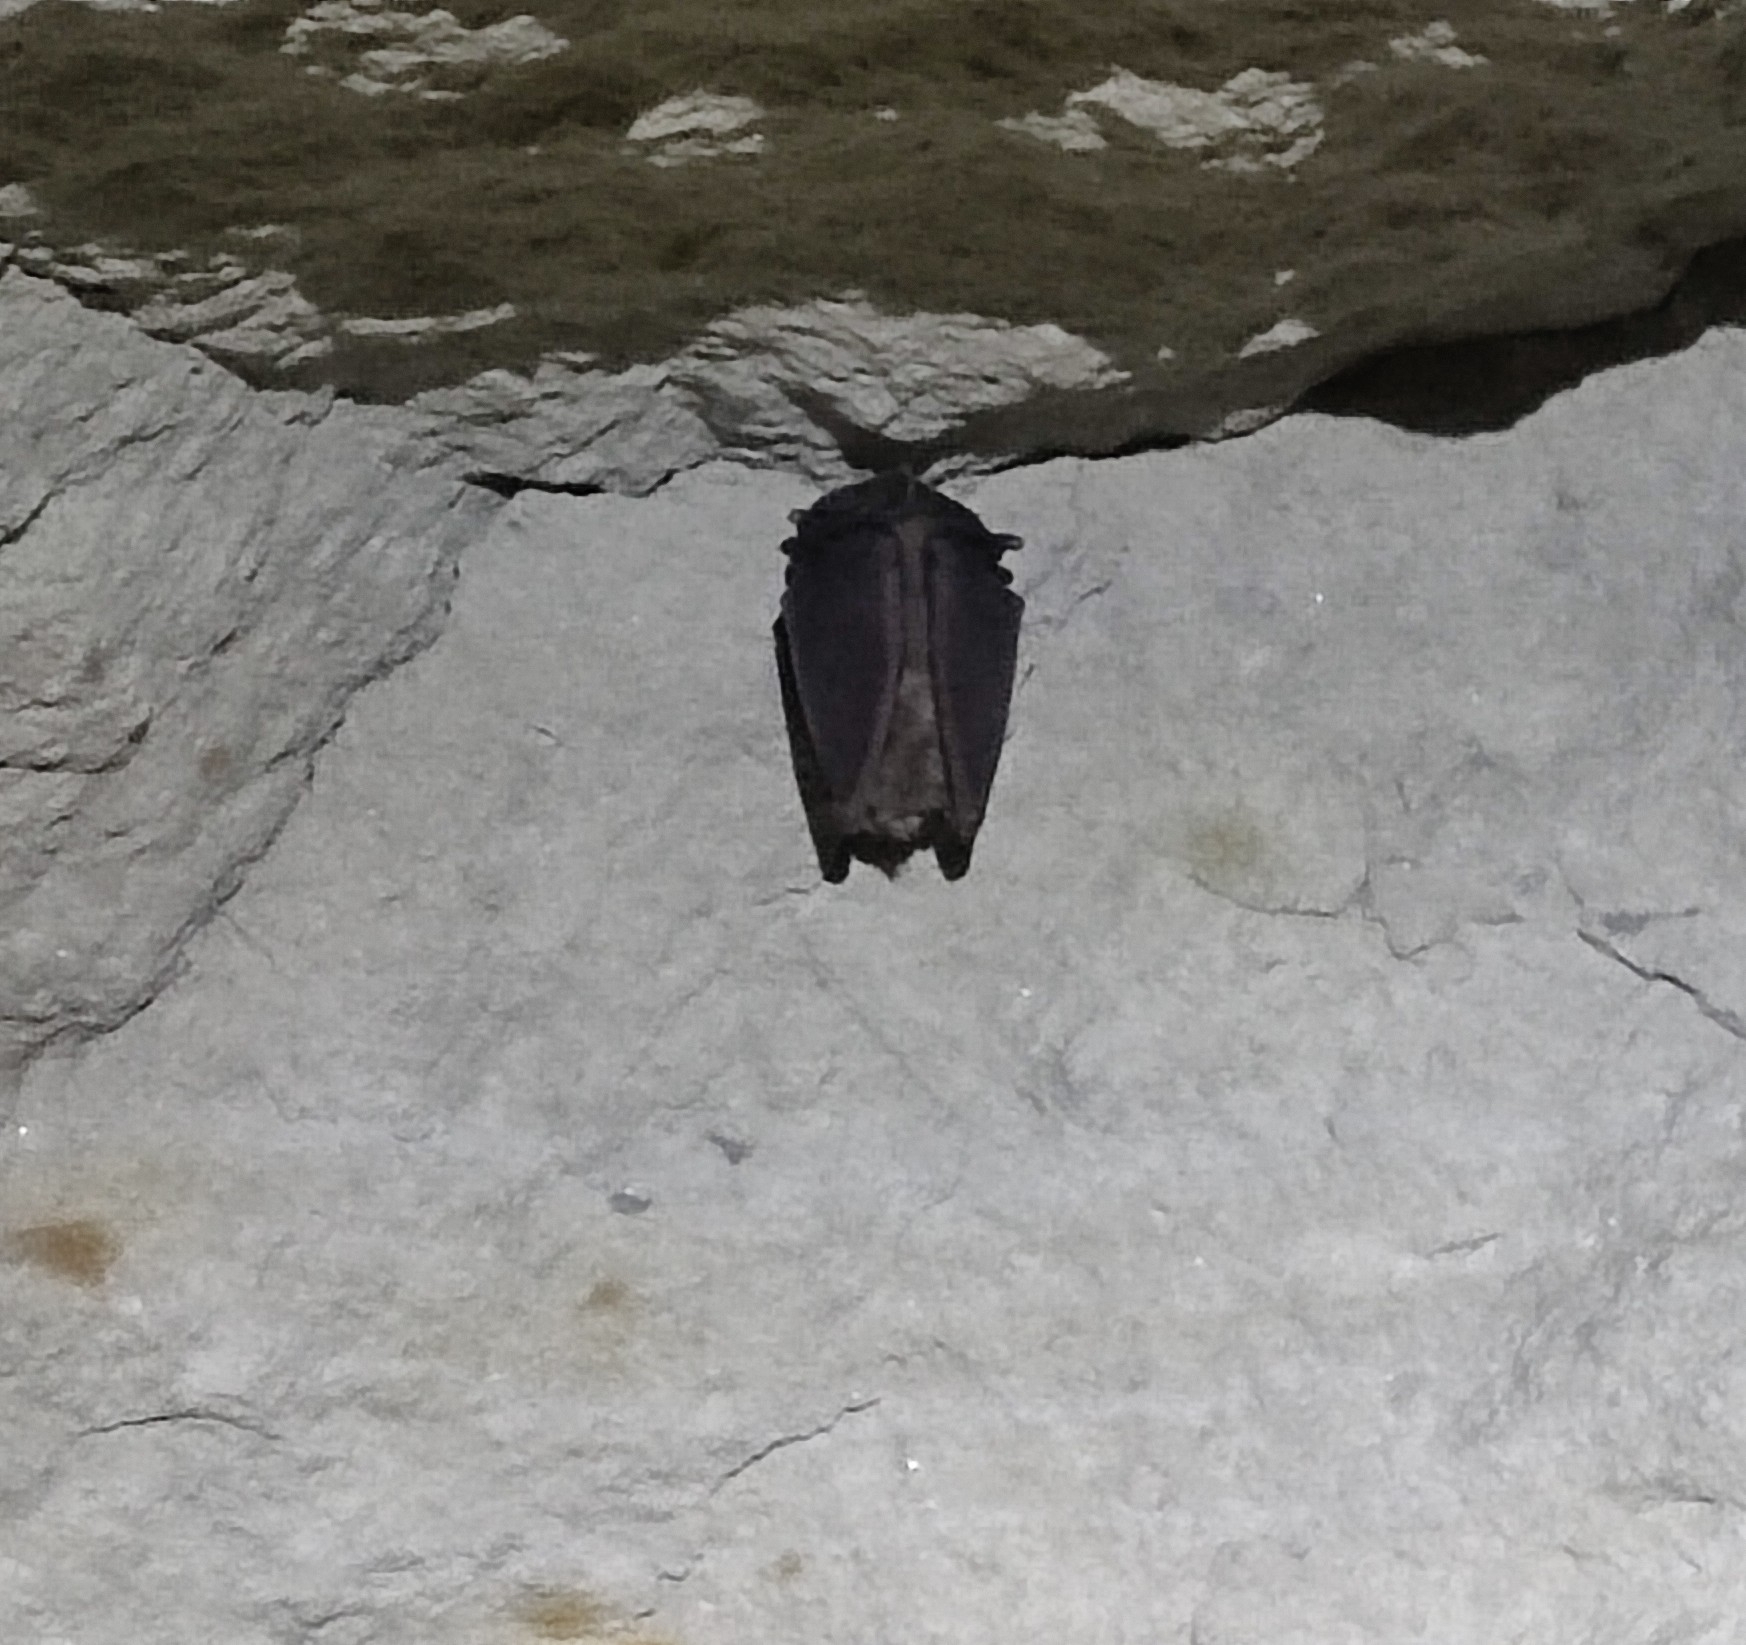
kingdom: Animalia
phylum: Chordata
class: Mammalia
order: Chiroptera
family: Rhinolophidae
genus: Rhinolophus
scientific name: Rhinolophus ferrumequinum
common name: Greater horseshoe bat
